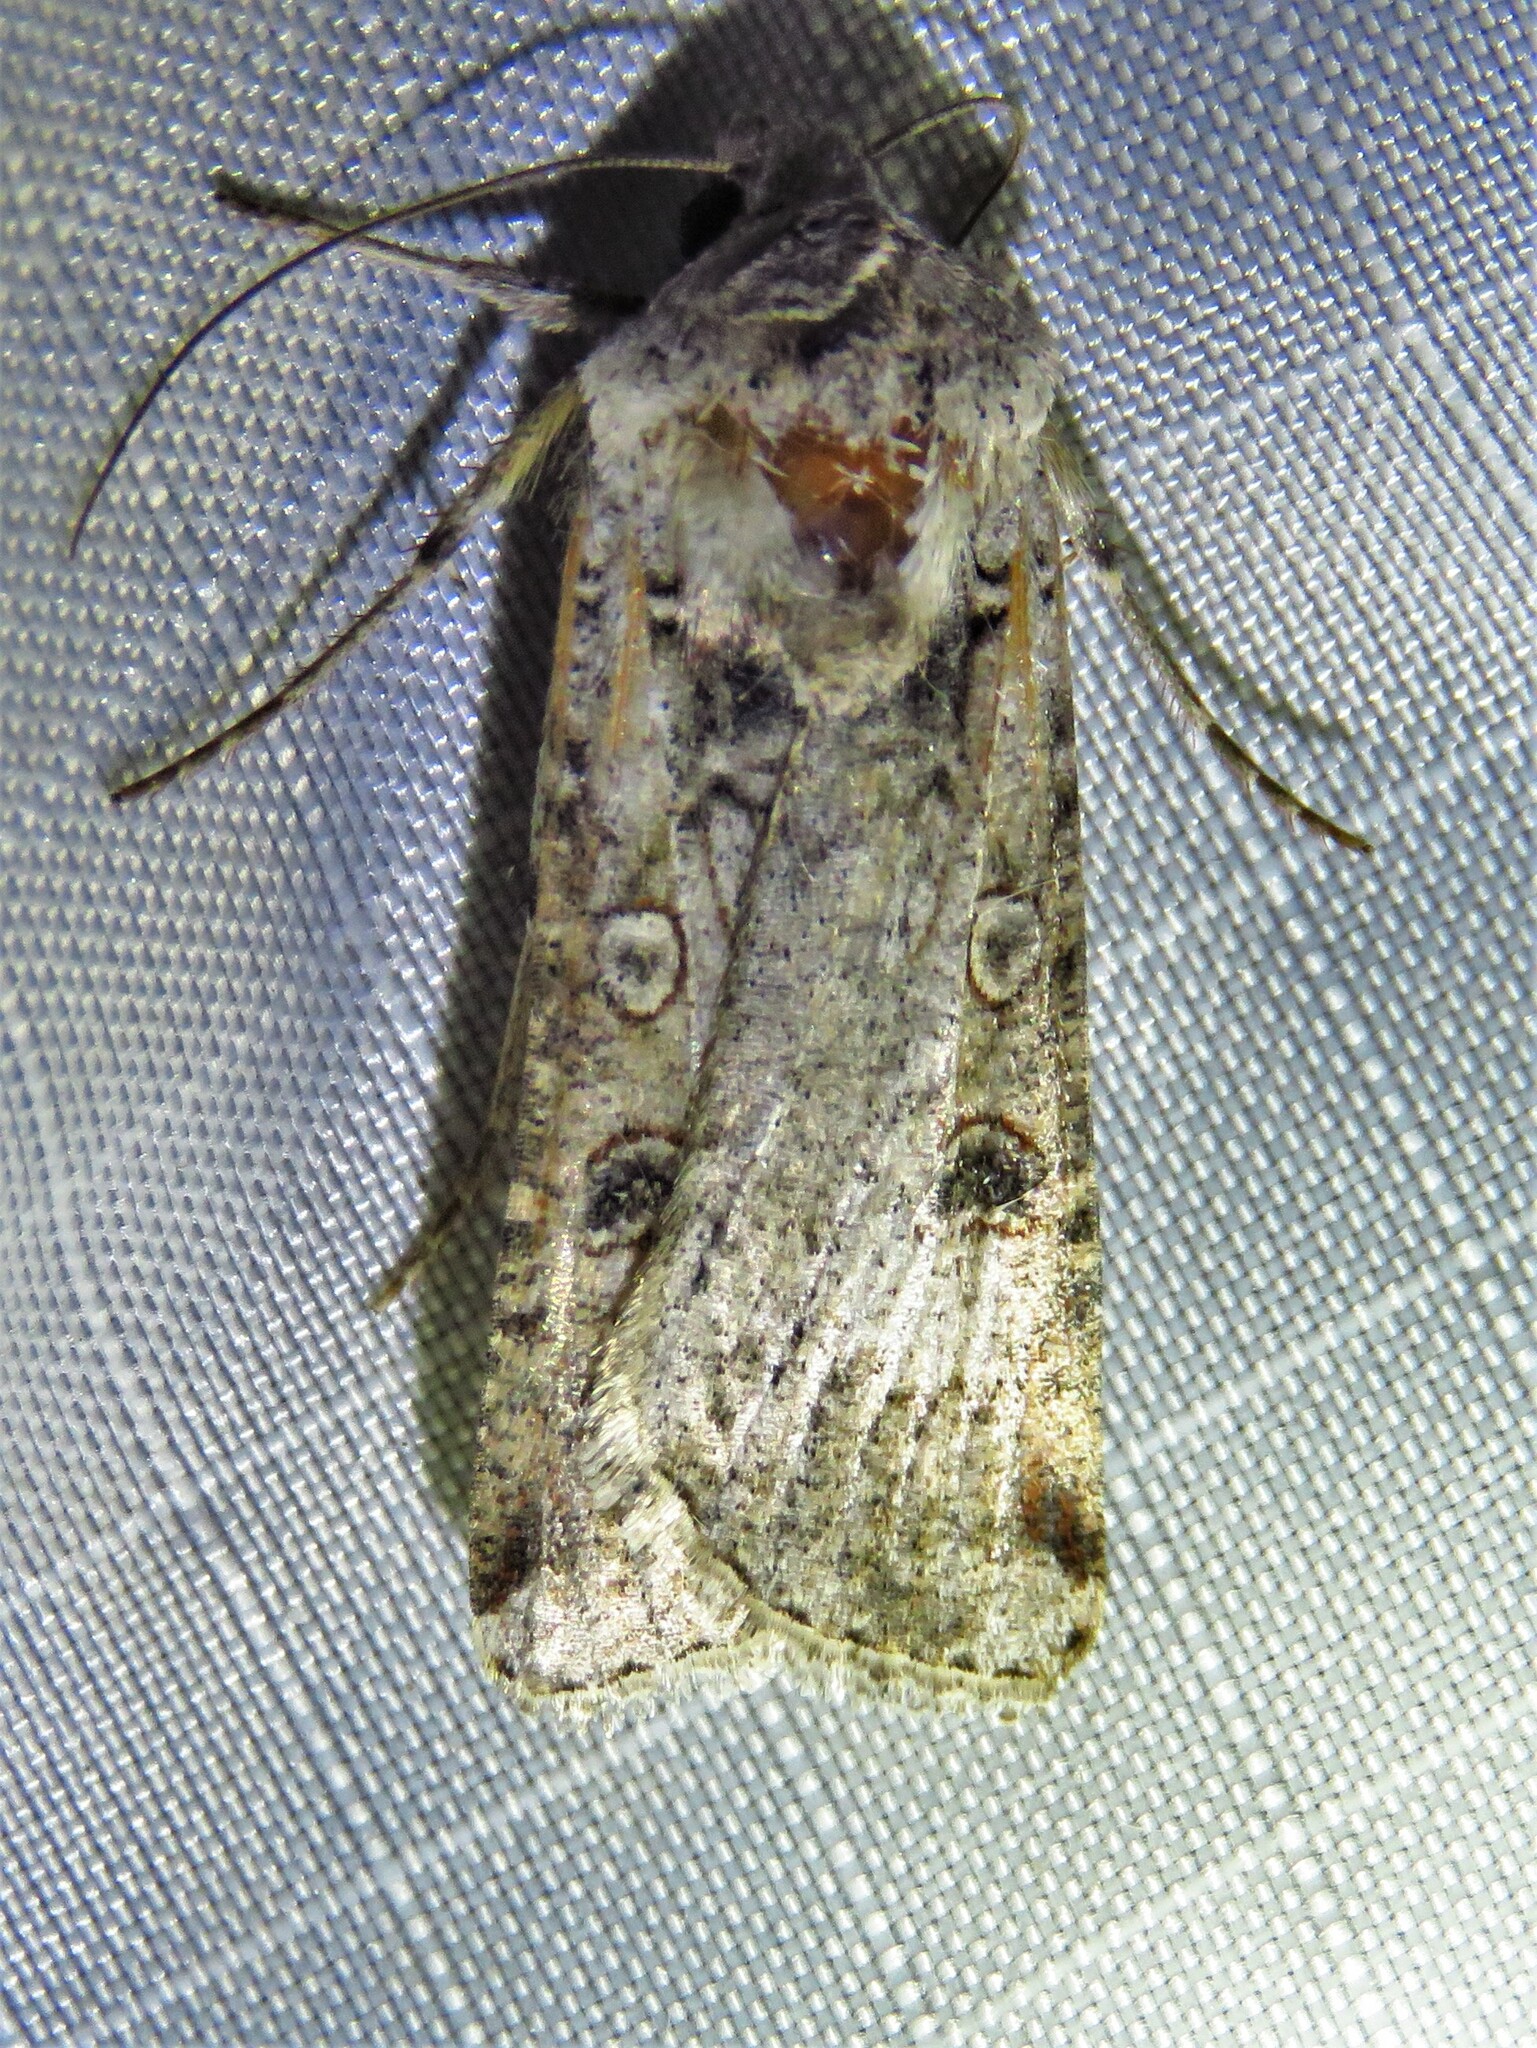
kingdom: Animalia
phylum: Arthropoda
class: Insecta
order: Lepidoptera
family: Noctuidae
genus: Hemieuxoa
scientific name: Hemieuxoa rudens
